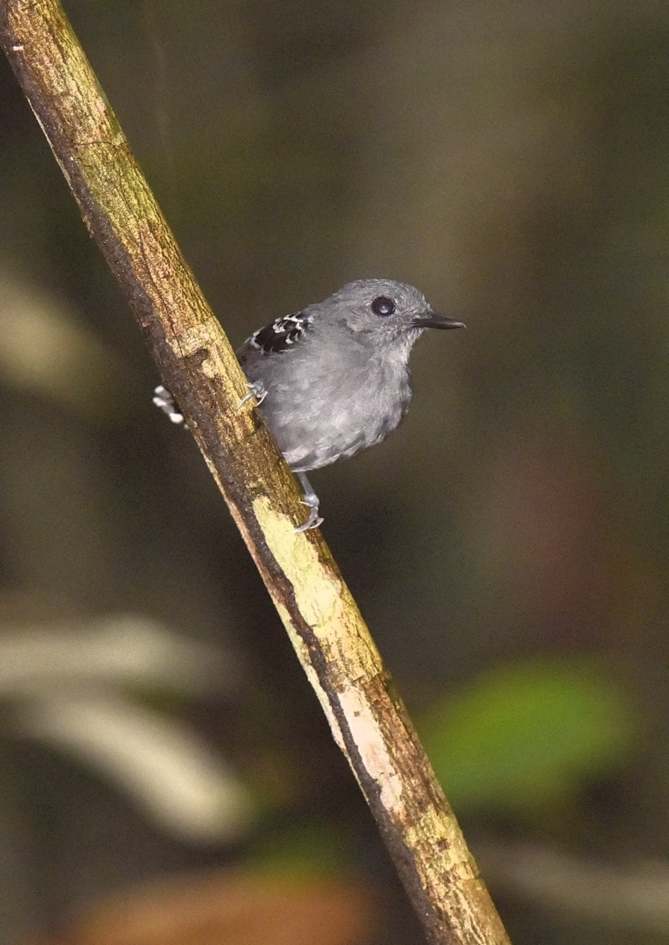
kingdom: Animalia
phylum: Chordata
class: Aves
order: Passeriformes
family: Thamnophilidae
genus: Willisornis
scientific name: Willisornis poecilinotus
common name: Common scale-backed antbird
